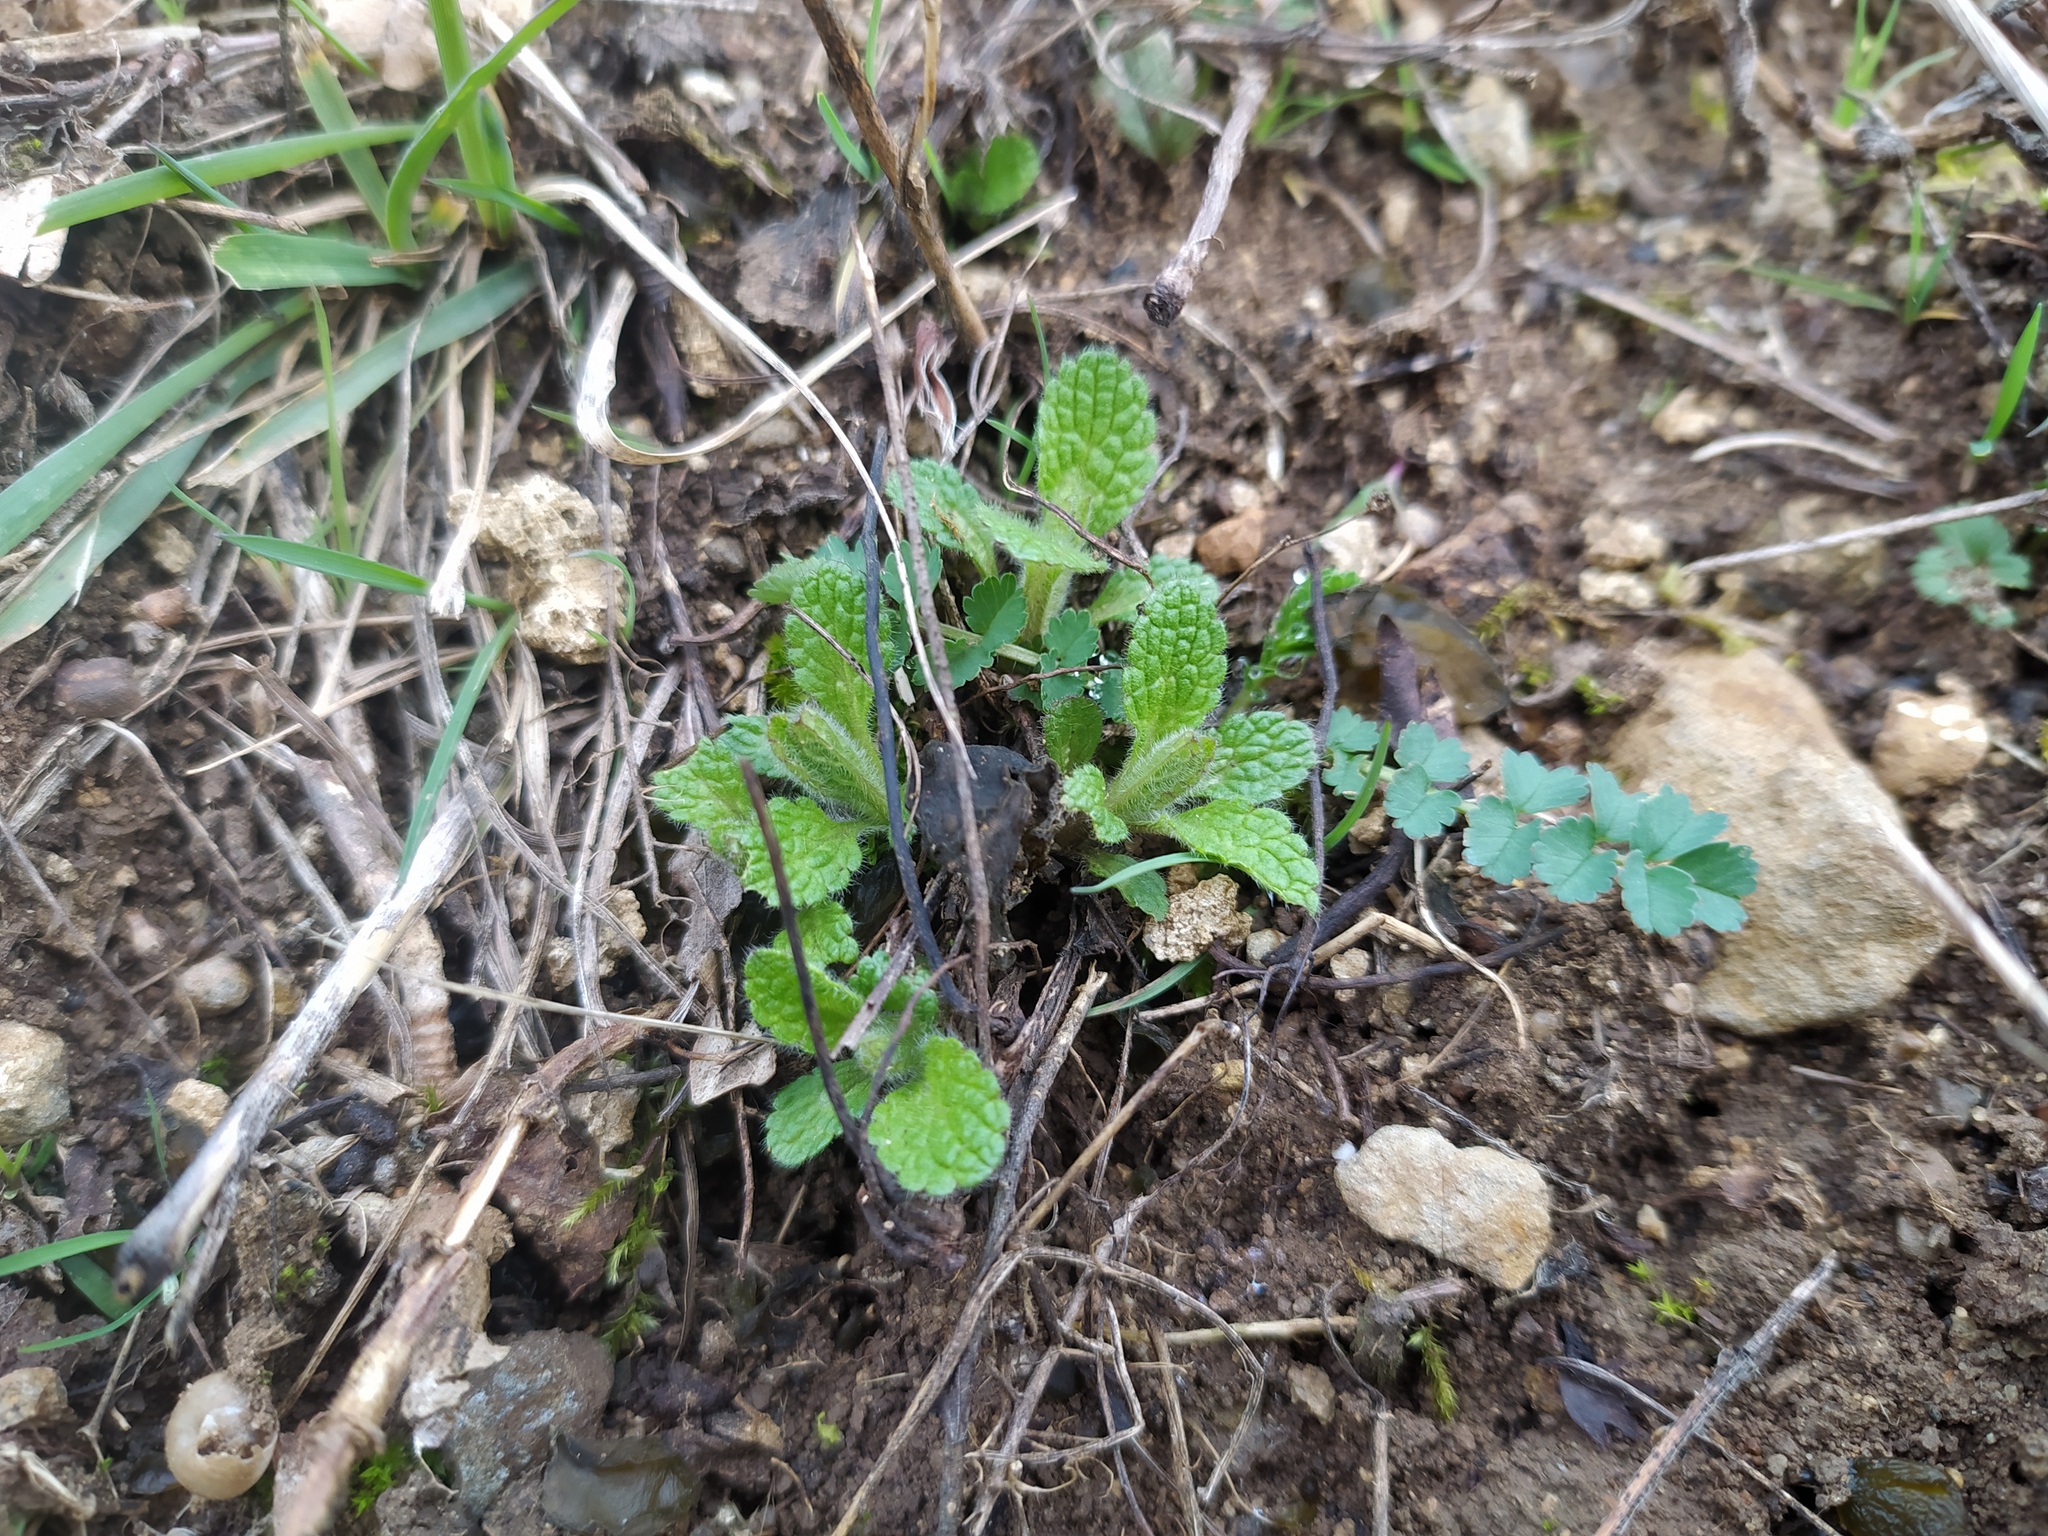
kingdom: Plantae
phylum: Tracheophyta
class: Magnoliopsida
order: Lamiales
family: Lamiaceae
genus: Stachys
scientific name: Stachys recta
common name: Perennial yellow-woundwort
